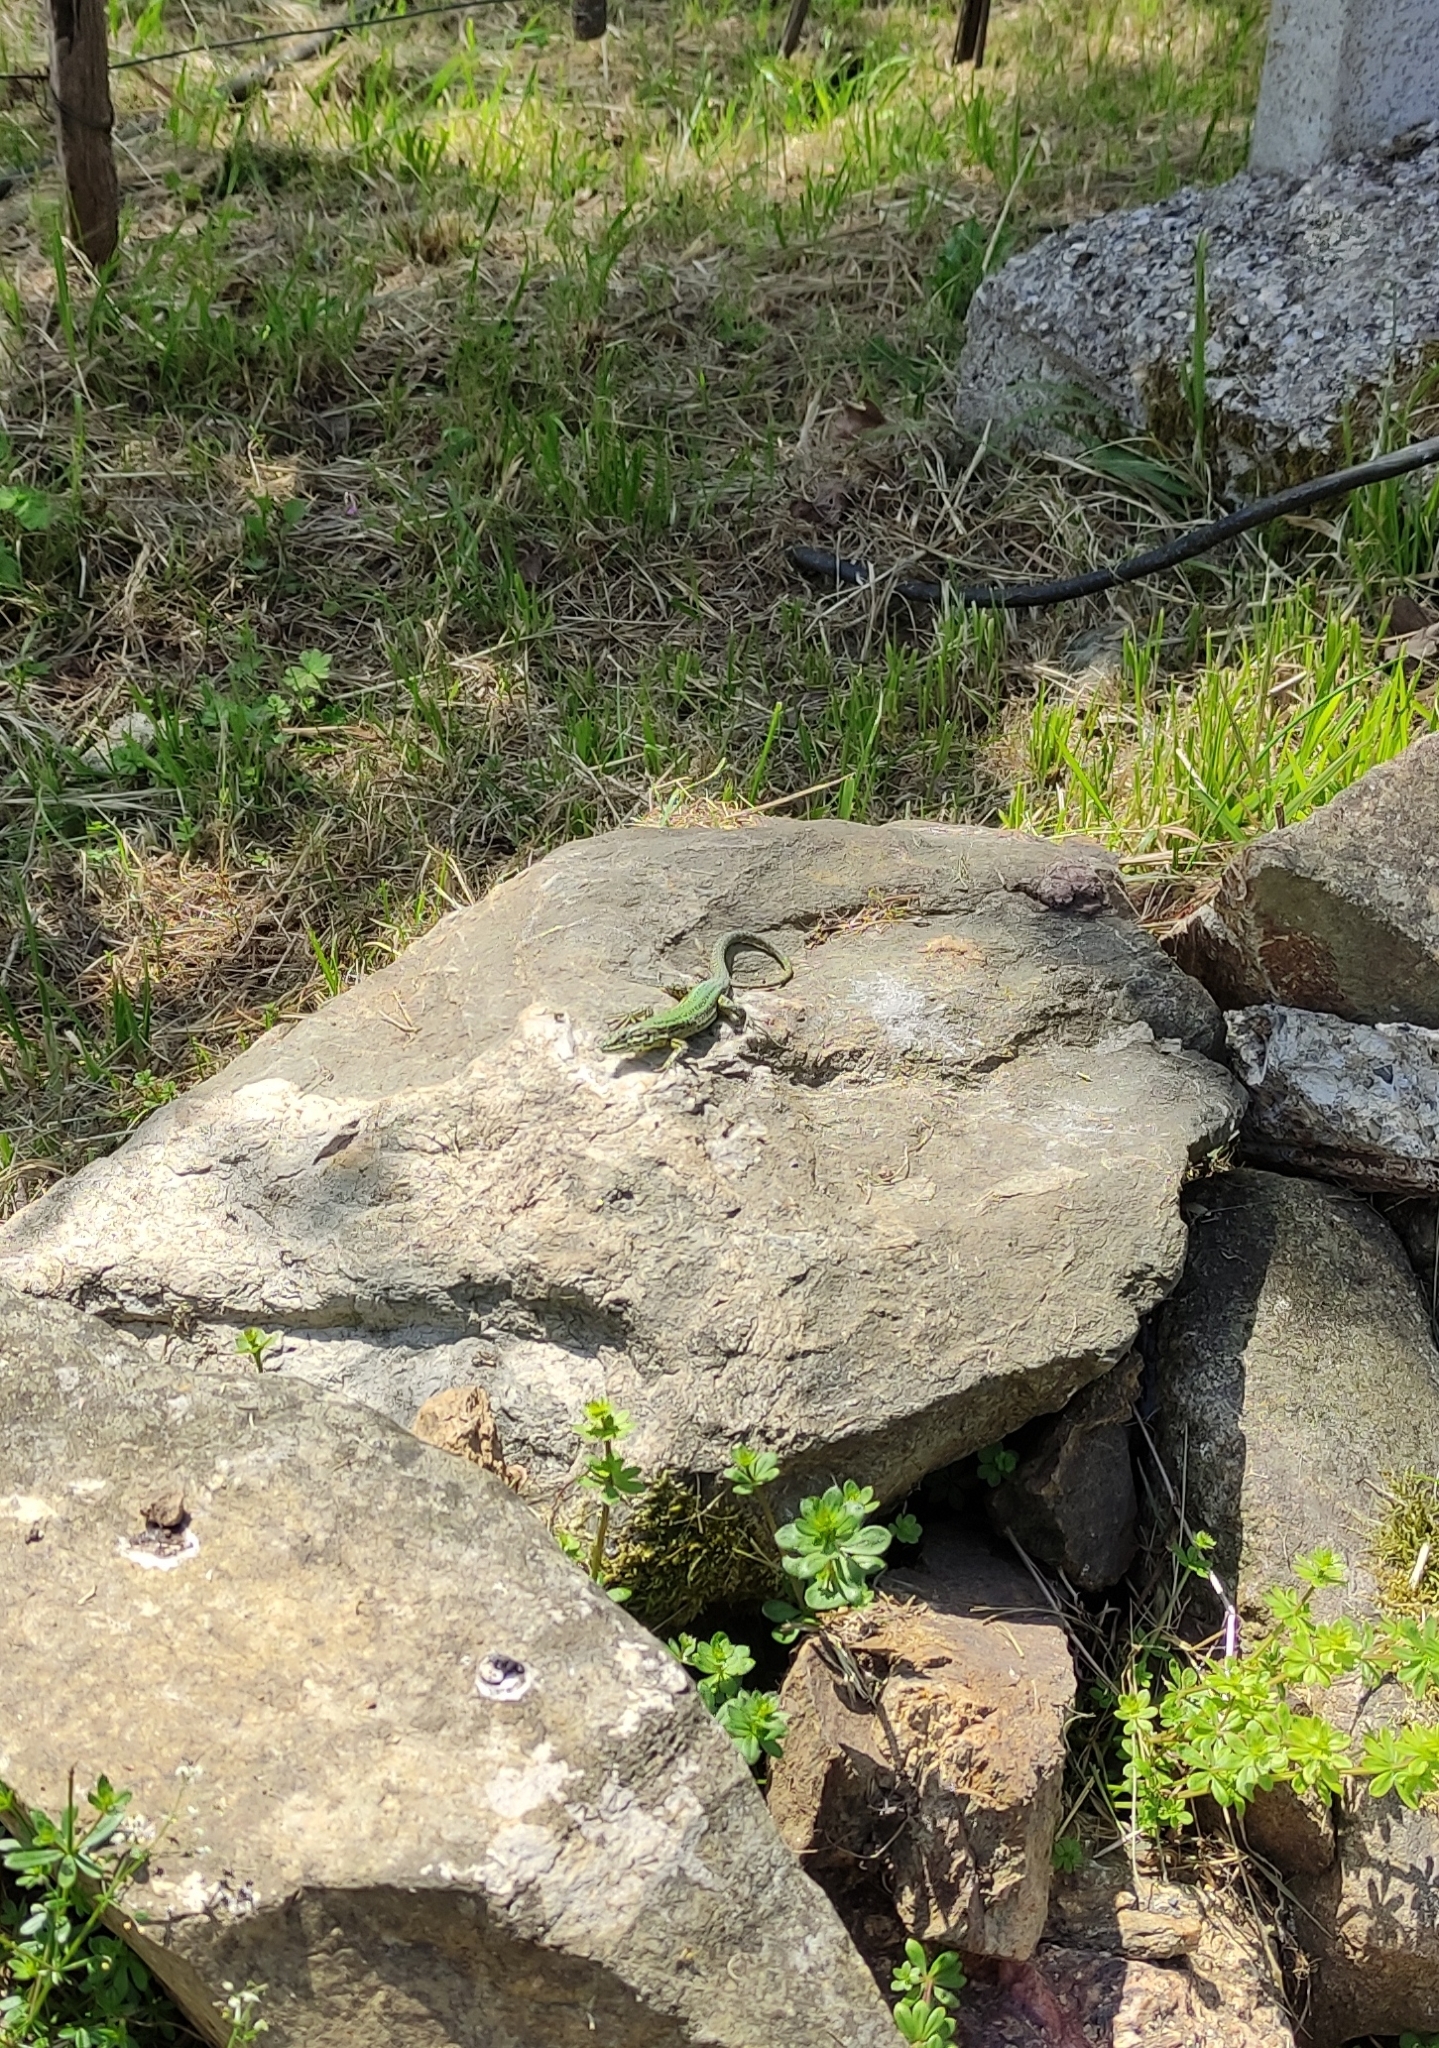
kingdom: Animalia
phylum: Chordata
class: Squamata
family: Lacertidae
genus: Podarcis
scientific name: Podarcis bocagei
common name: Bocage's wall lizard
